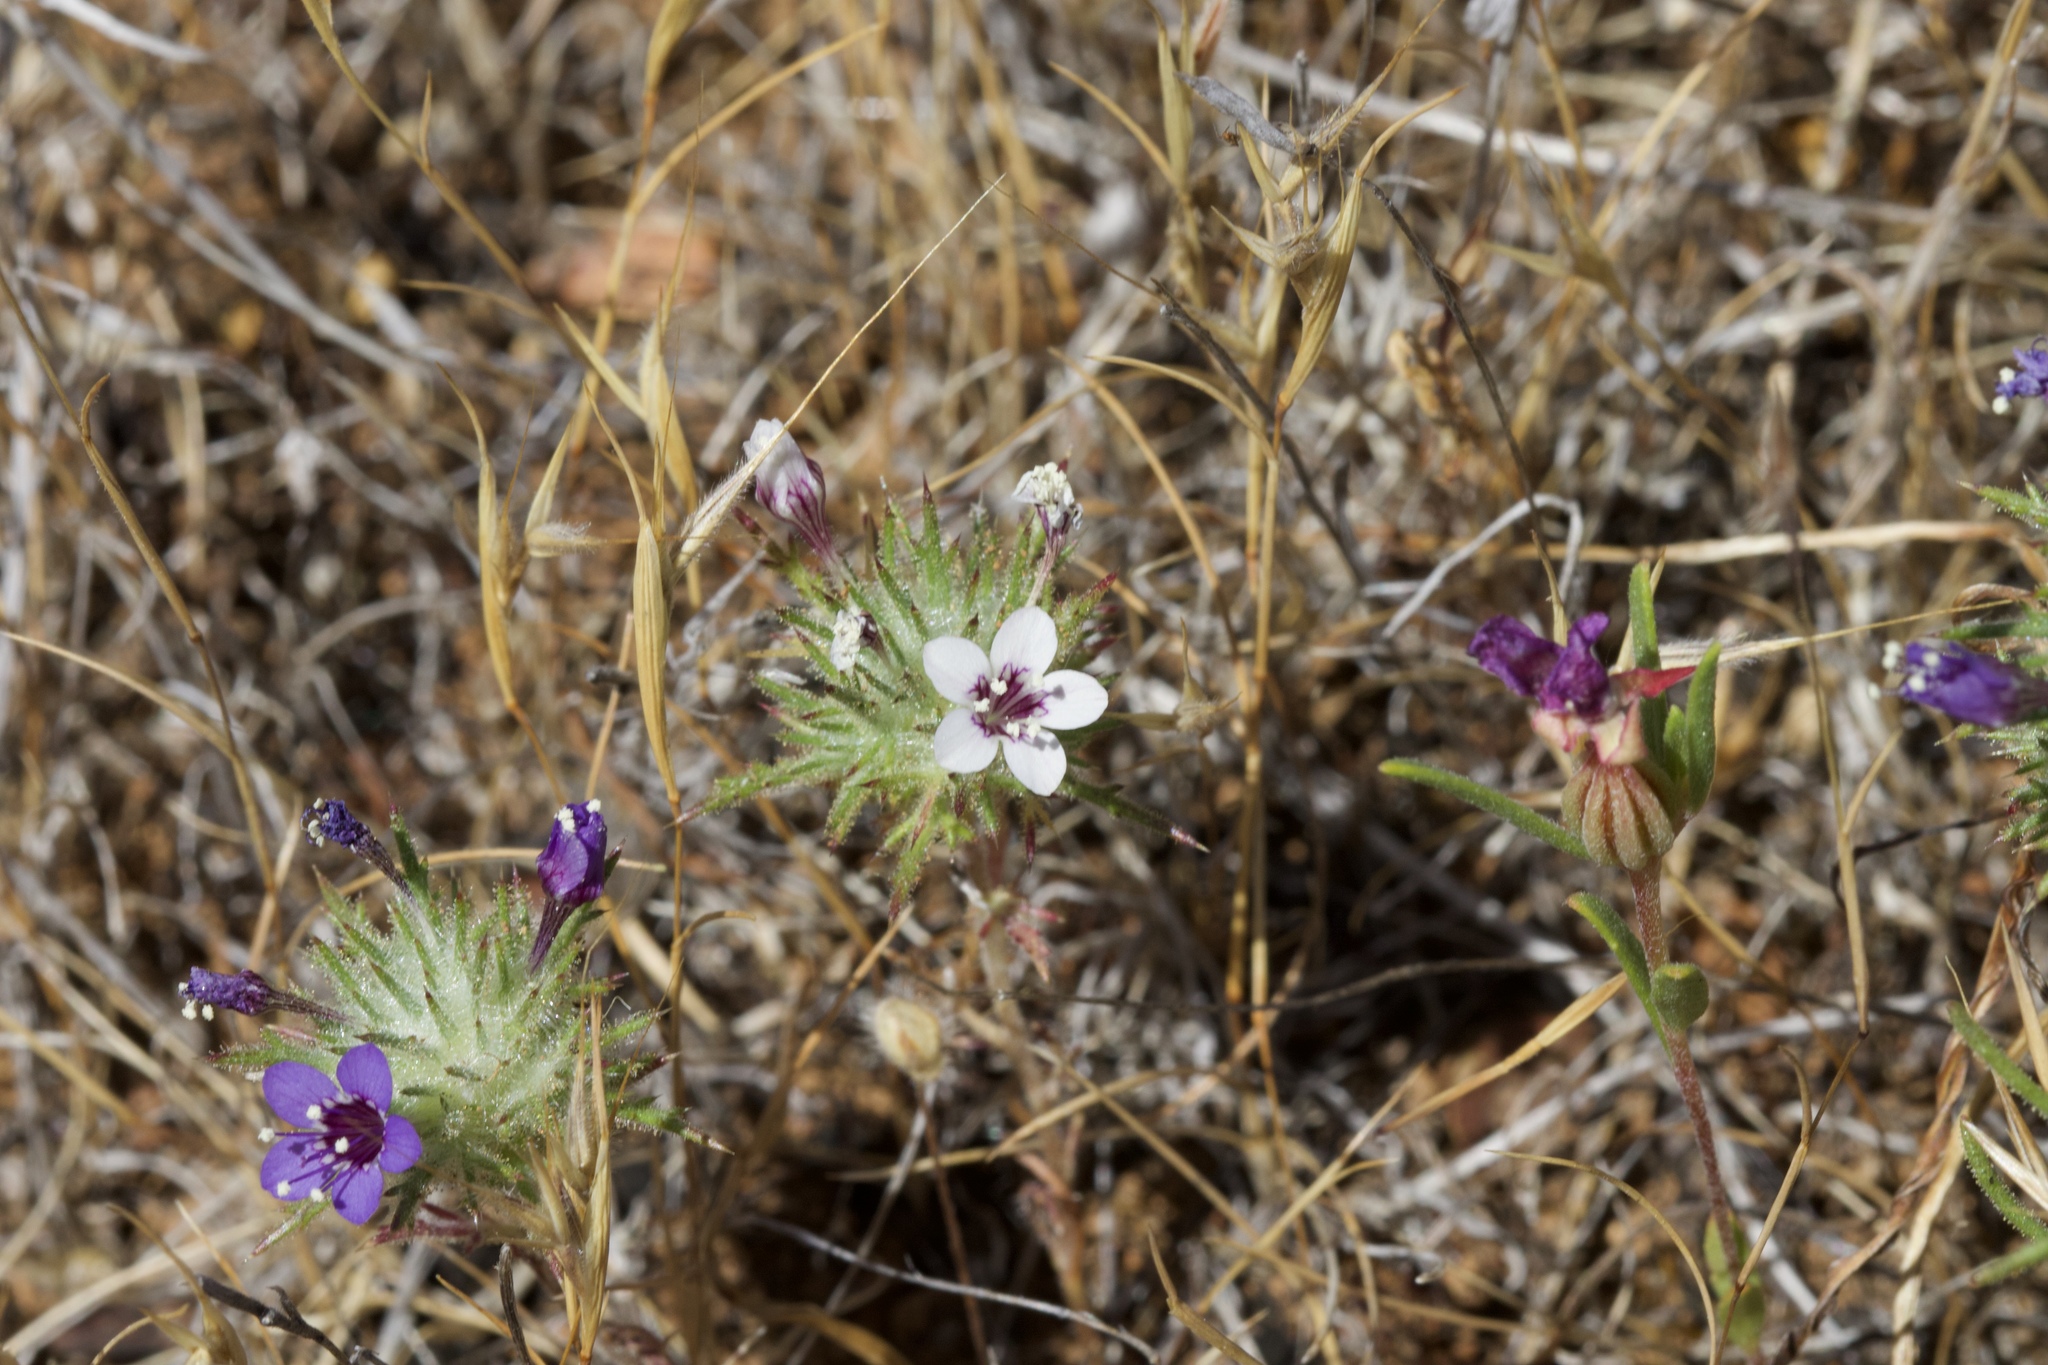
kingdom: Plantae
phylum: Tracheophyta
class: Magnoliopsida
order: Ericales
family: Polemoniaceae
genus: Navarretia
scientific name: Navarretia pubescens
